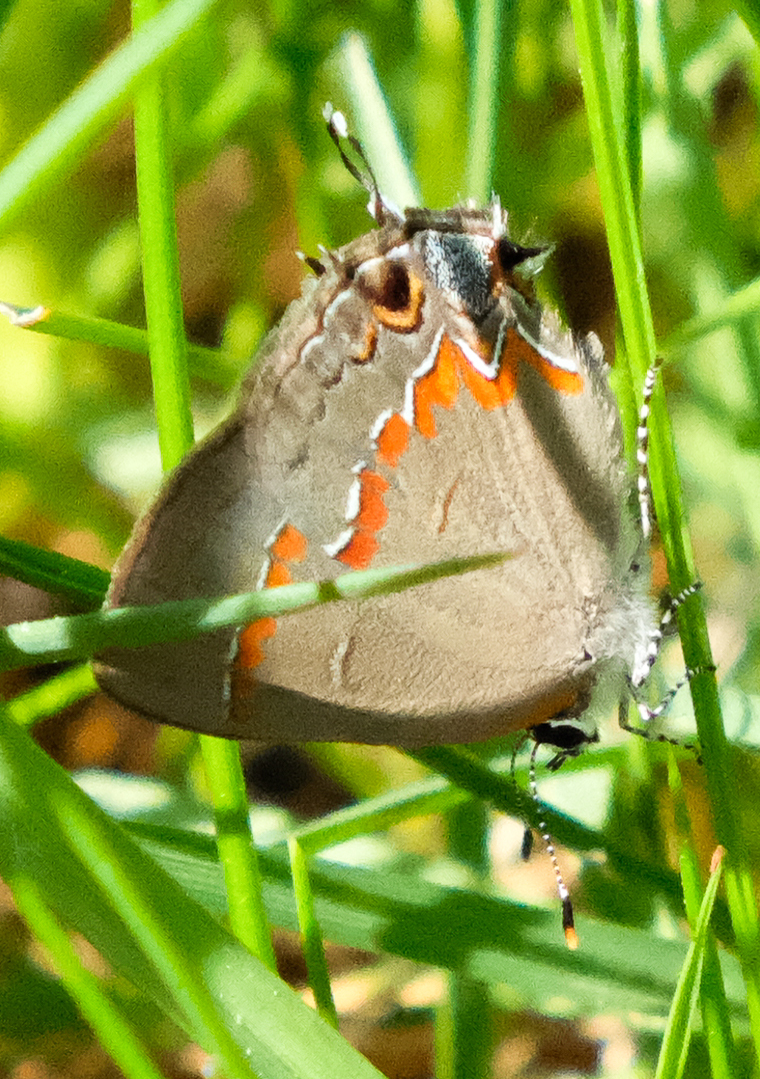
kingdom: Animalia
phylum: Arthropoda
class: Insecta
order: Lepidoptera
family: Lycaenidae
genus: Calycopis
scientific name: Calycopis cecrops
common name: Red-banded hairstreak
